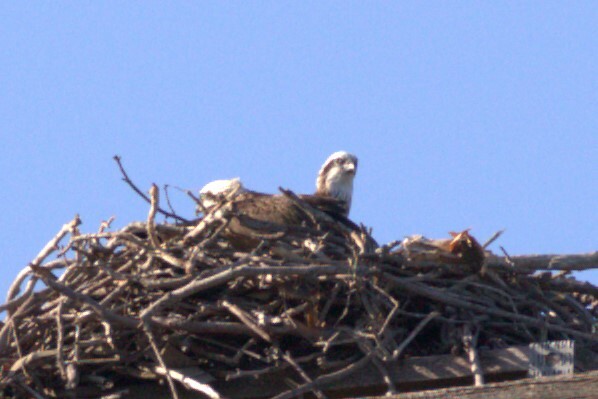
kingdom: Animalia
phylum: Chordata
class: Aves
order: Accipitriformes
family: Pandionidae
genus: Pandion
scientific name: Pandion cristatus
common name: Eastern osprey
